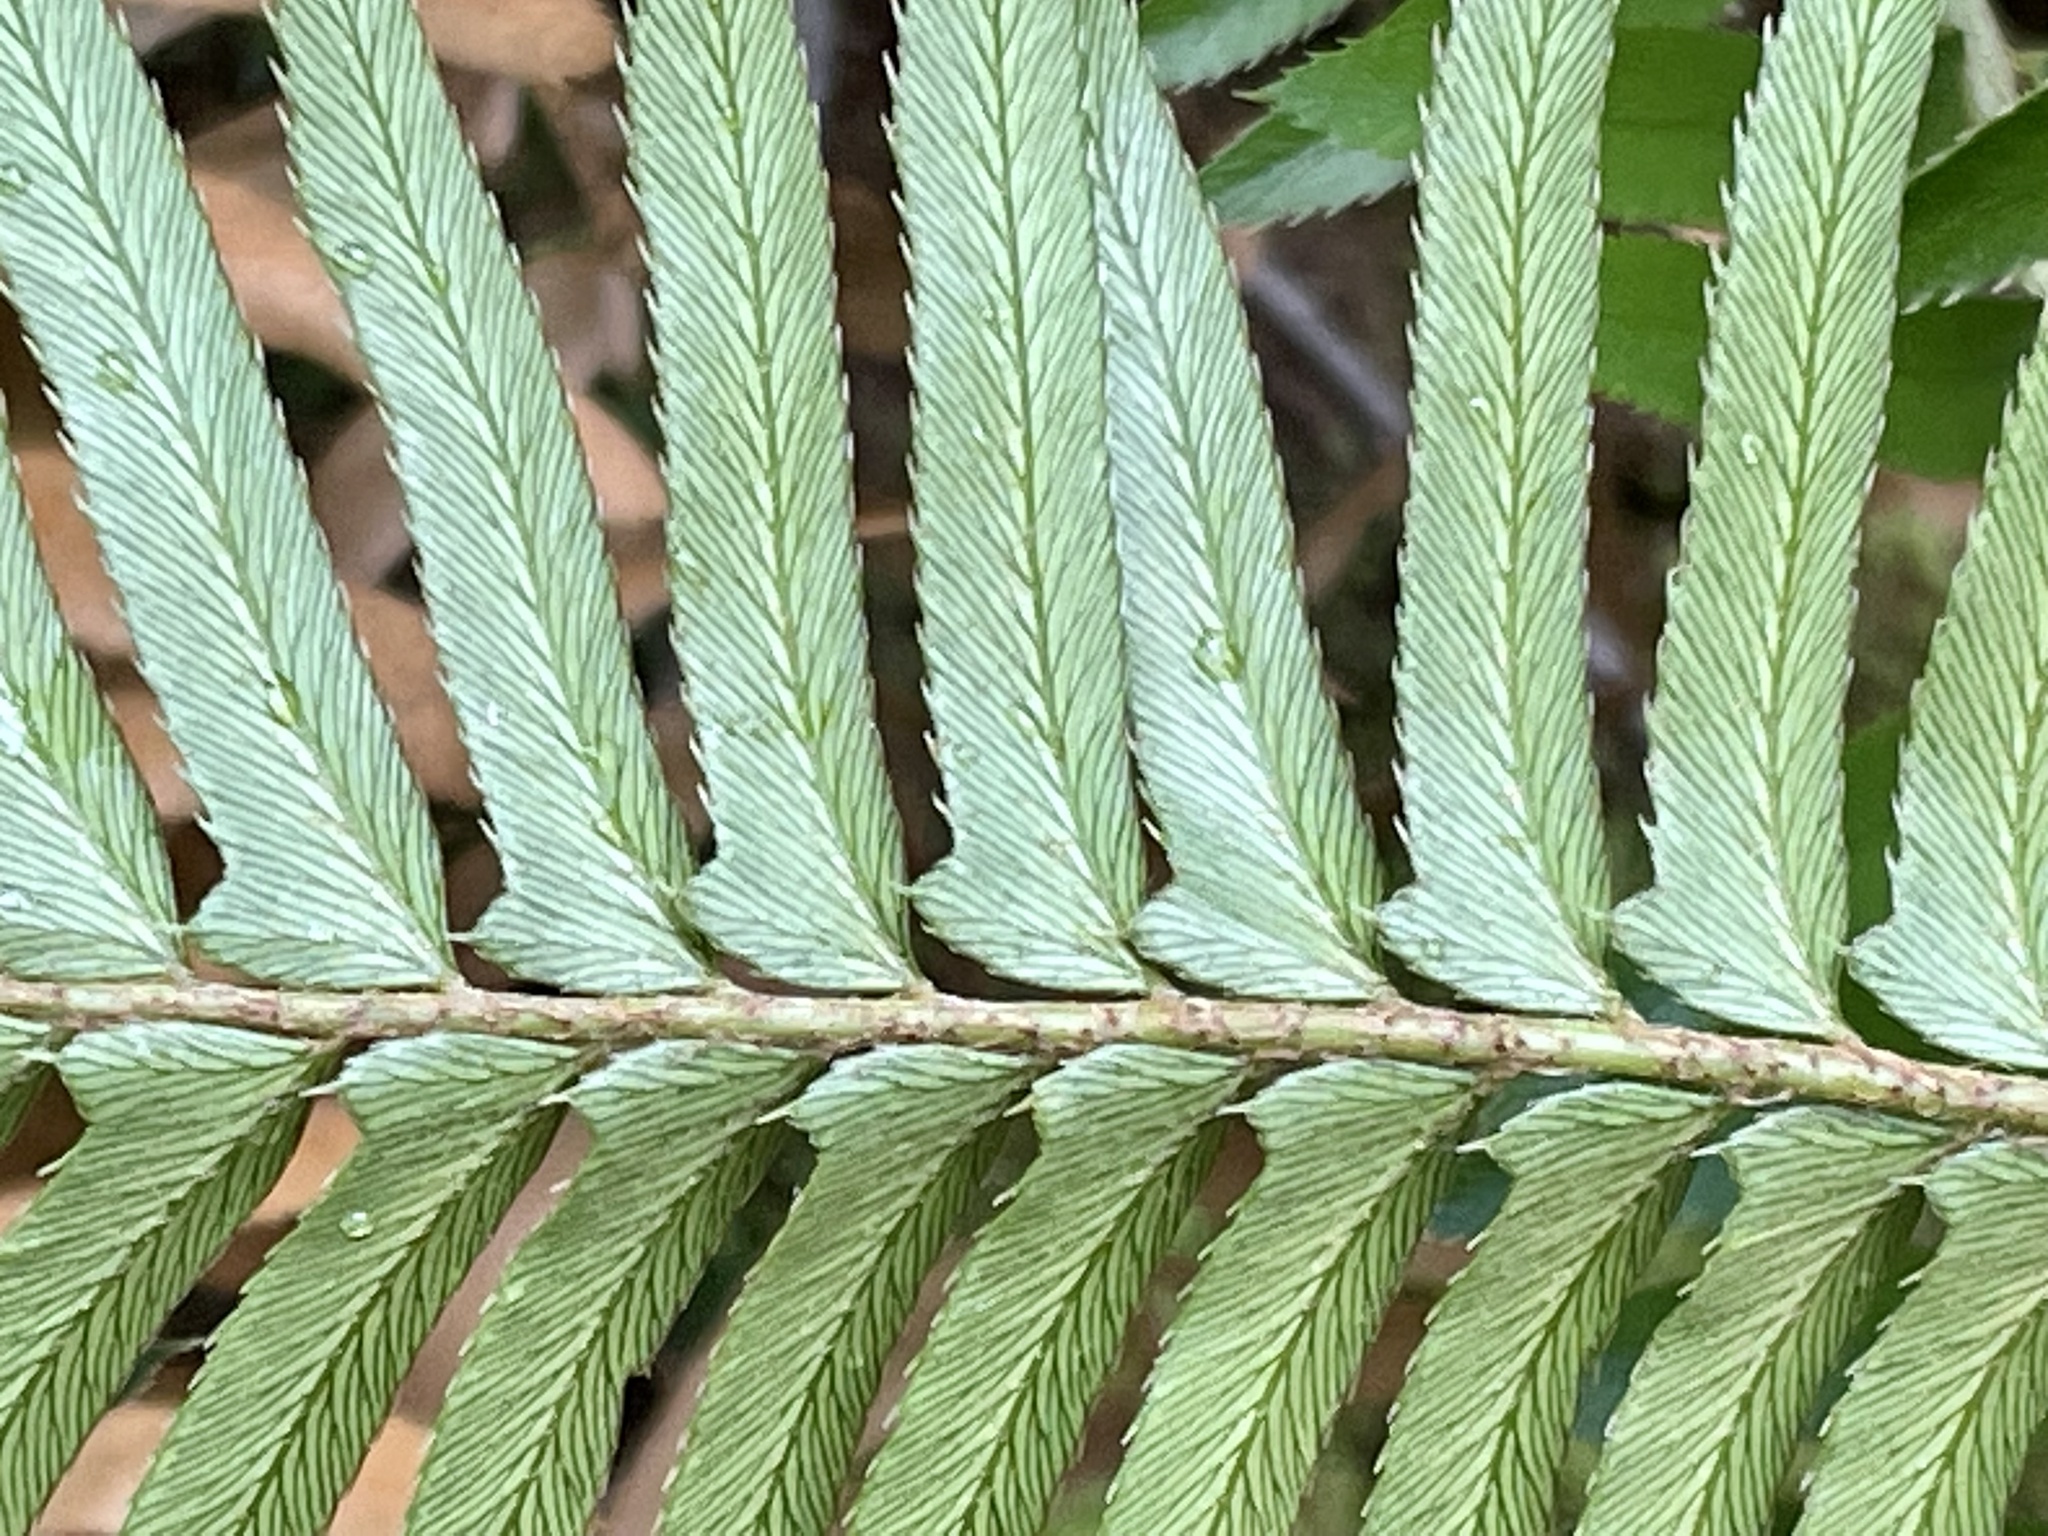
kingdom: Plantae
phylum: Tracheophyta
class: Polypodiopsida
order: Polypodiales
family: Dryopteridaceae
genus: Polystichum
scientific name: Polystichum munitum
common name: Western sword-fern
